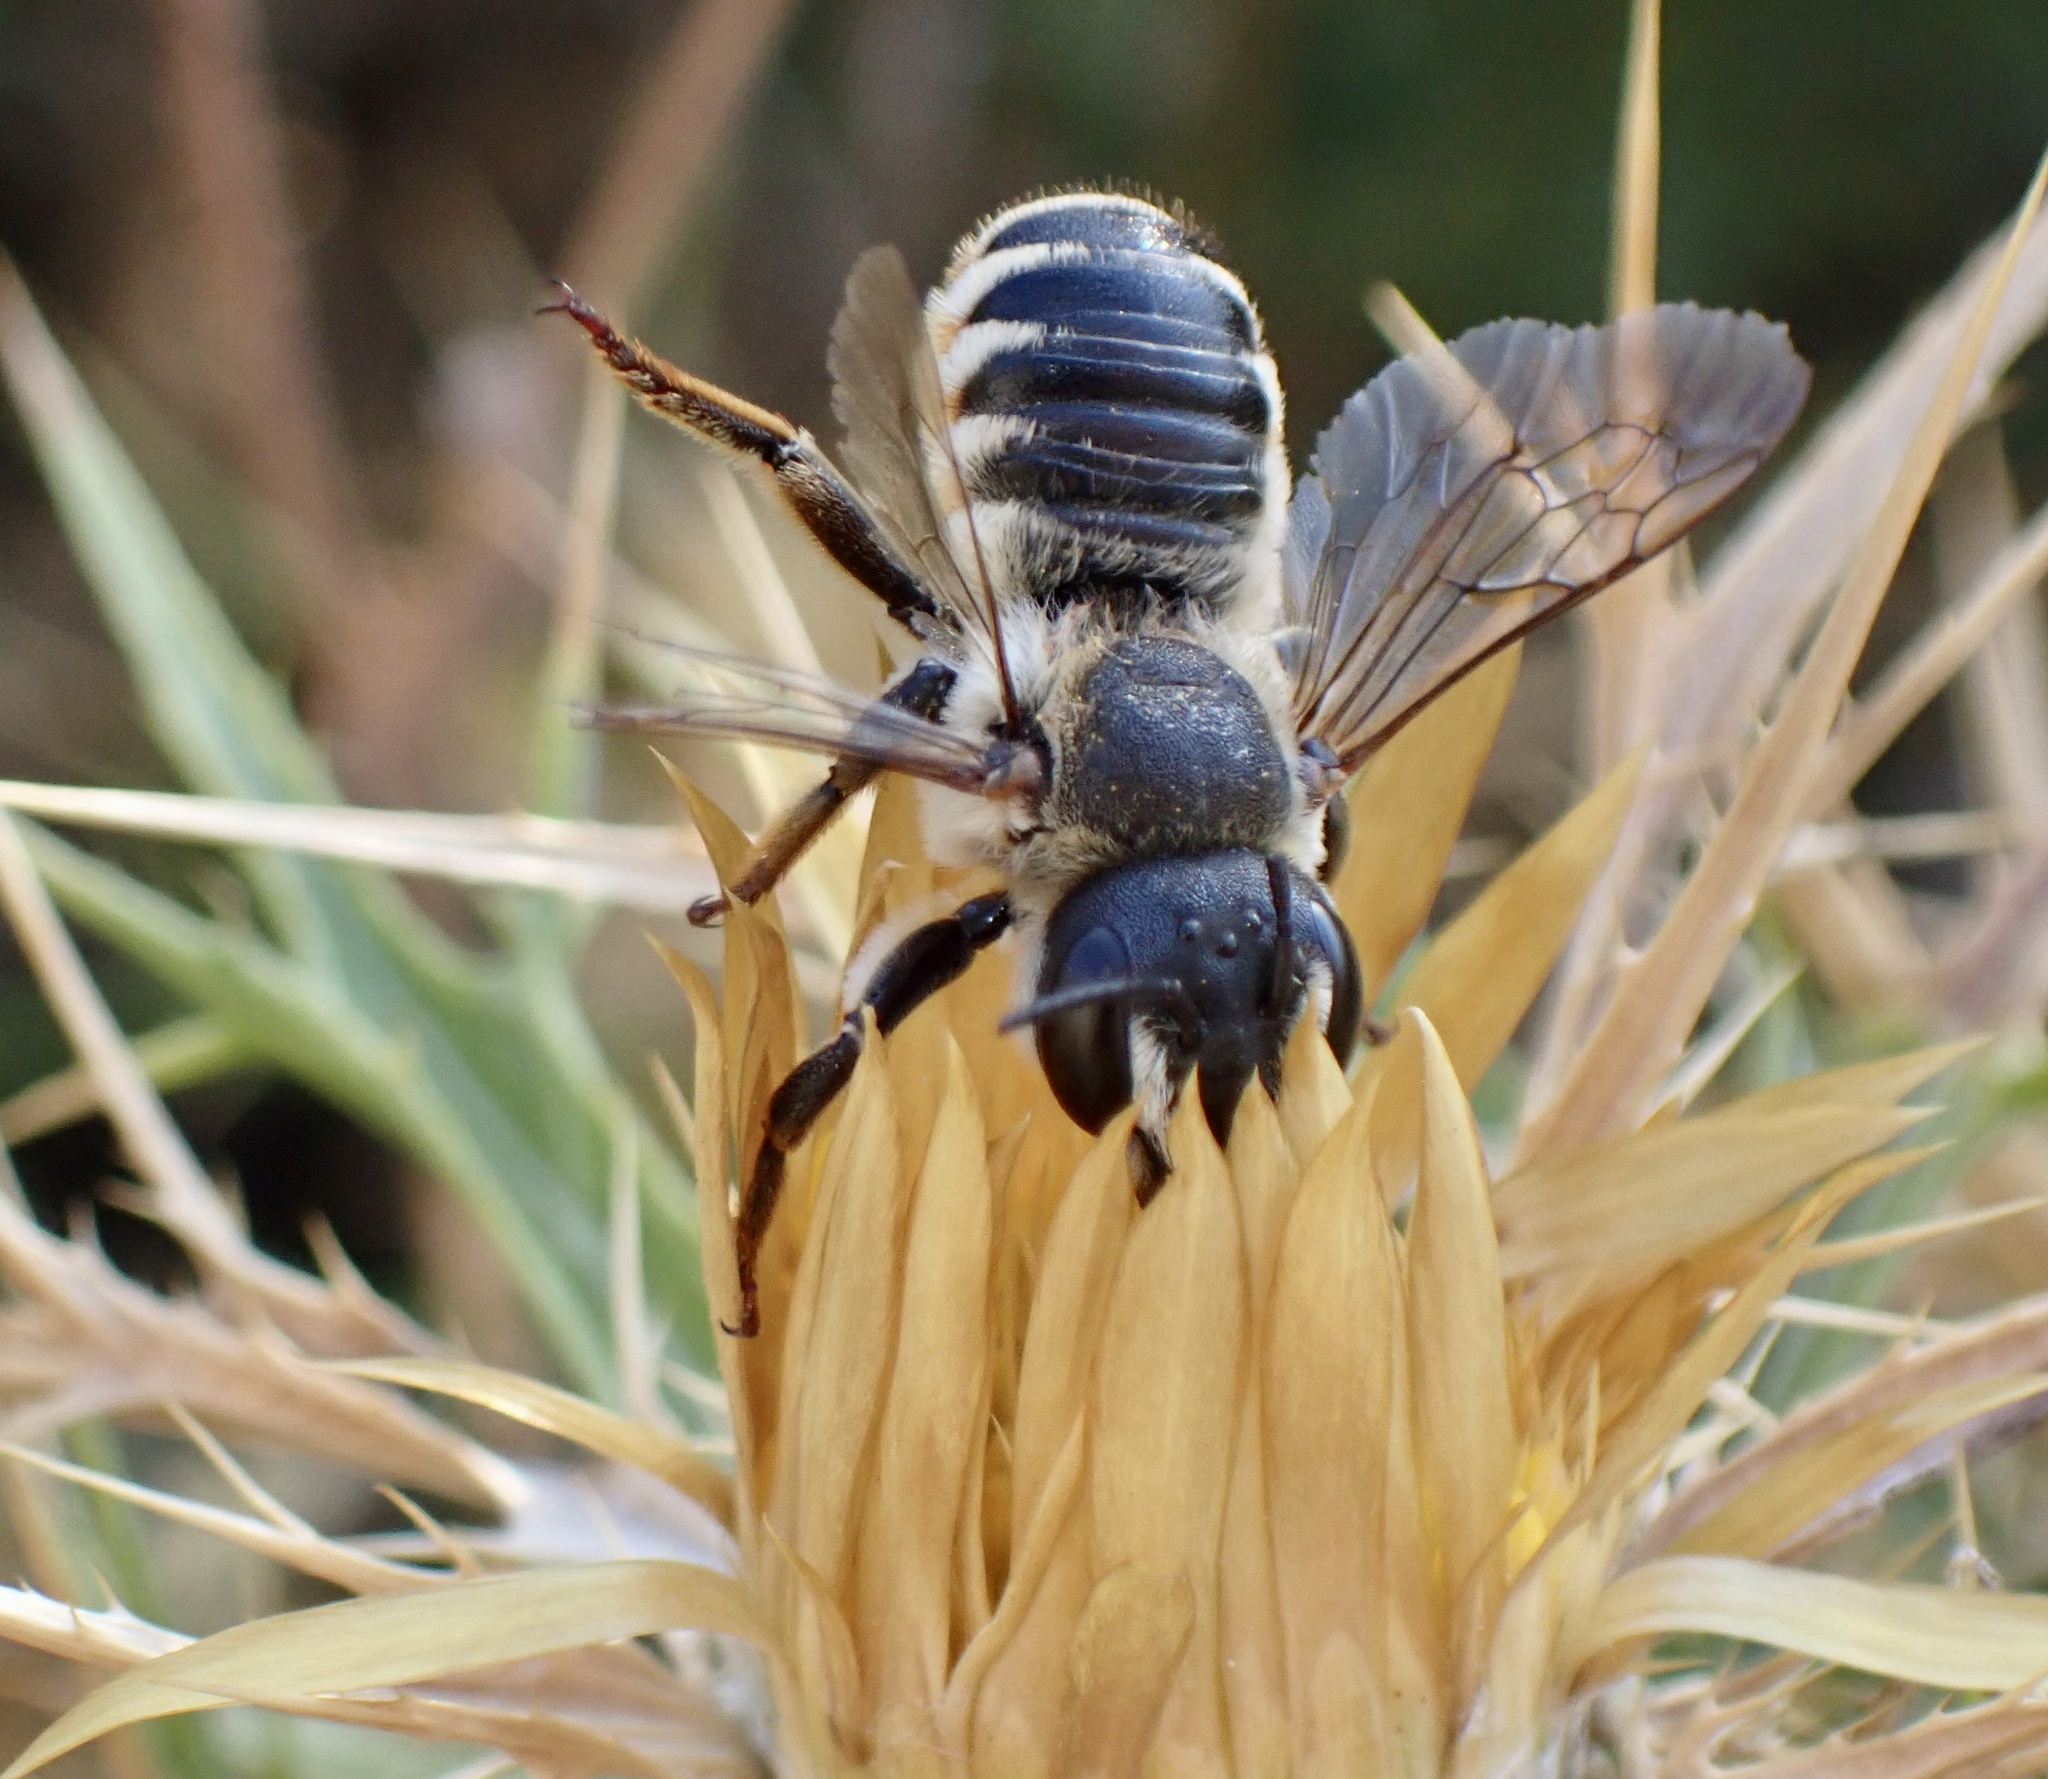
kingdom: Animalia
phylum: Arthropoda
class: Insecta
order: Hymenoptera
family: Megachilidae
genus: Megachile
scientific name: Megachile albisecta
